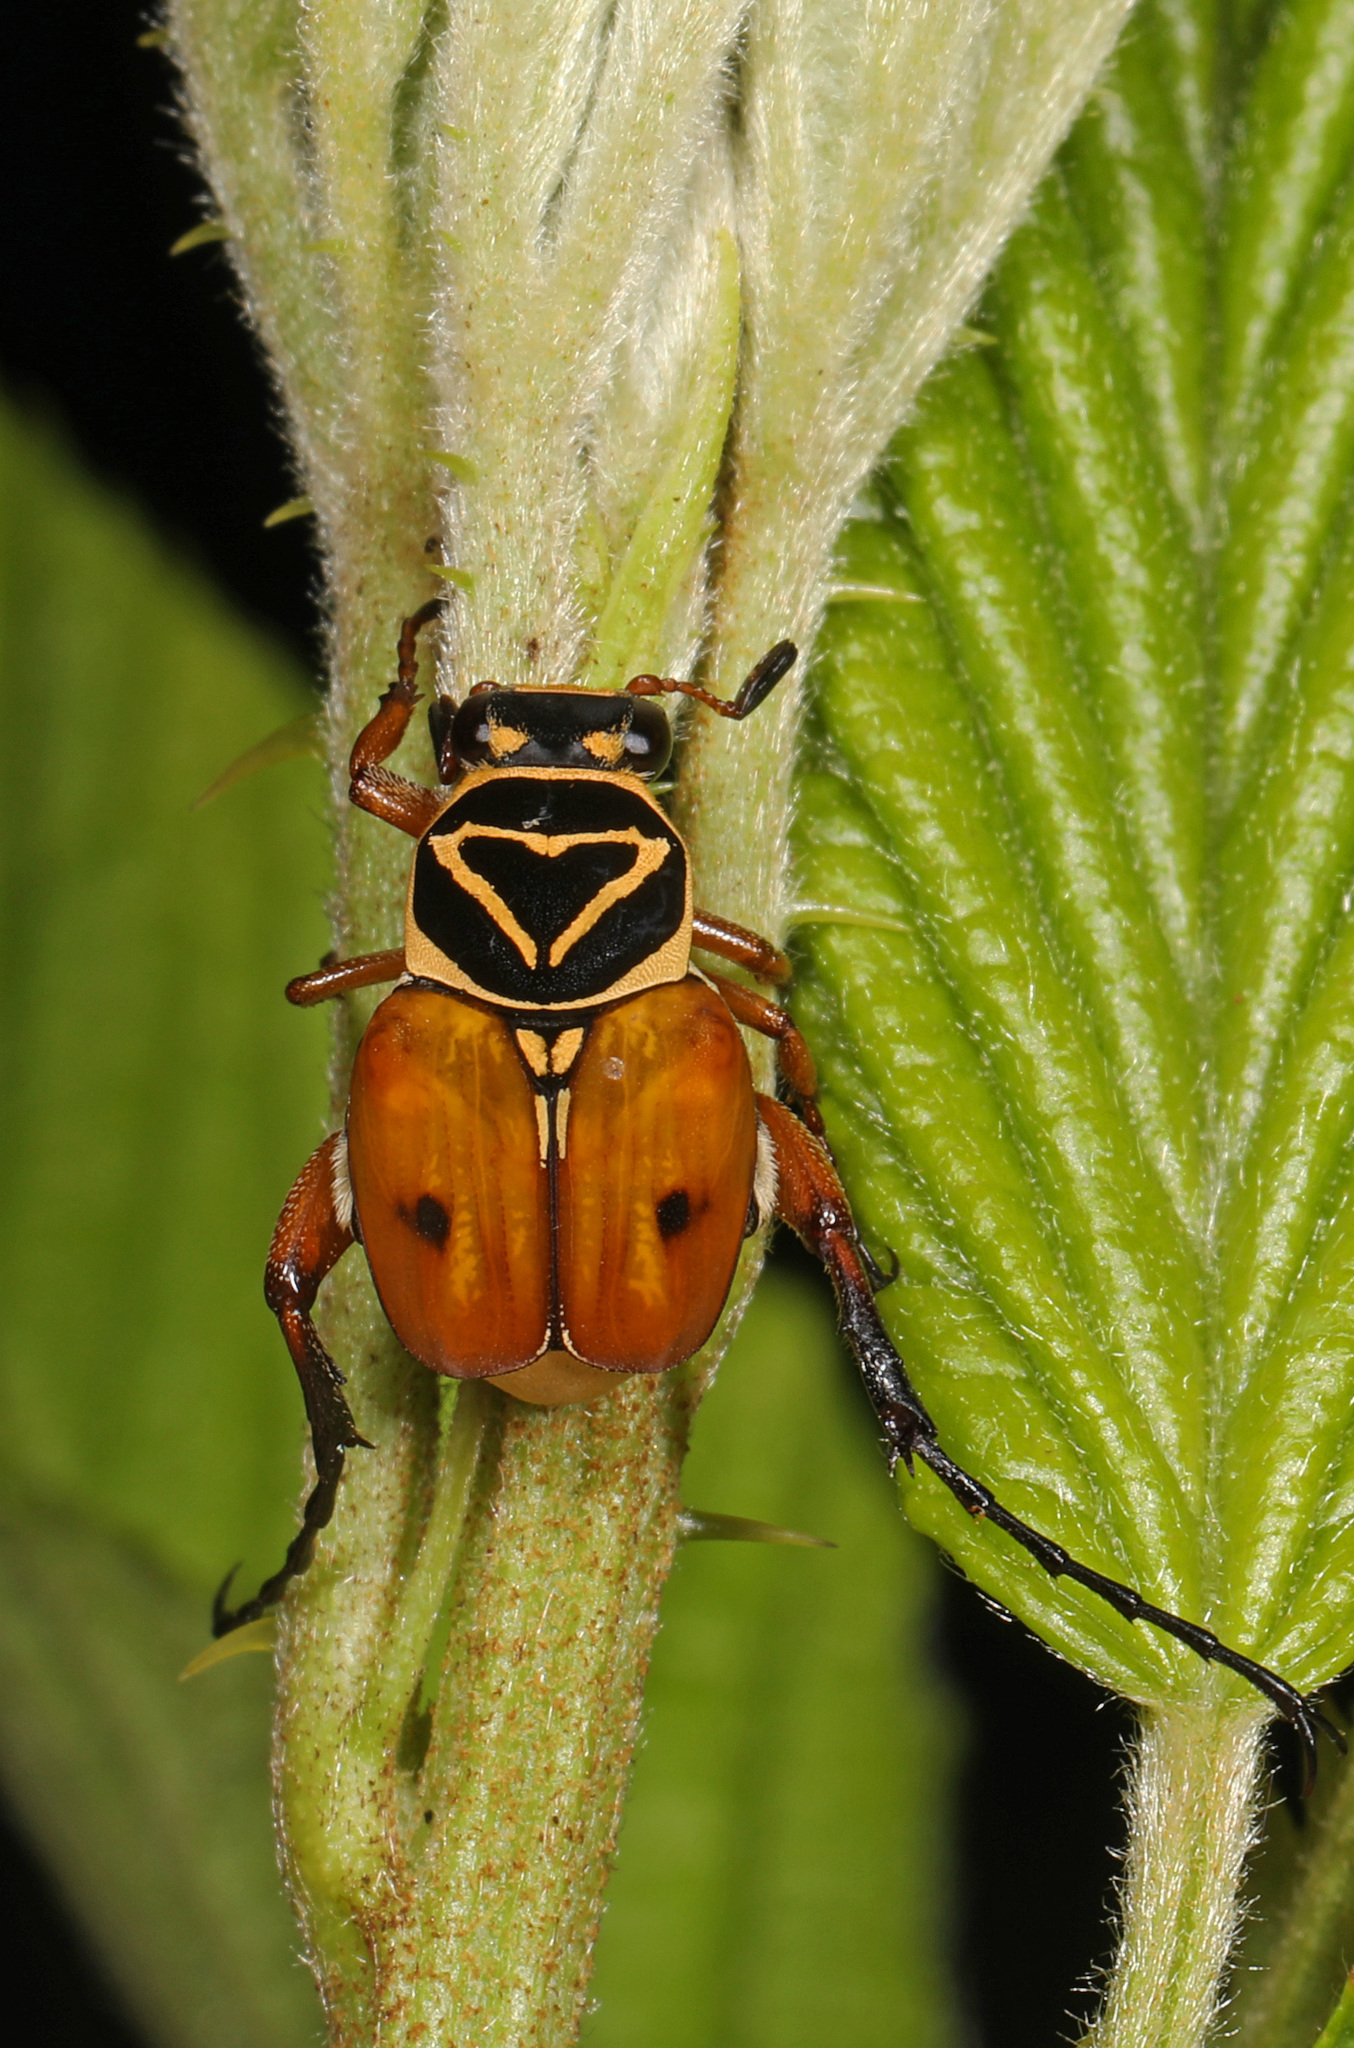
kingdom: Animalia
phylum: Arthropoda
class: Insecta
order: Coleoptera
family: Scarabaeidae
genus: Trigonopeltastes
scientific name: Trigonopeltastes delta
